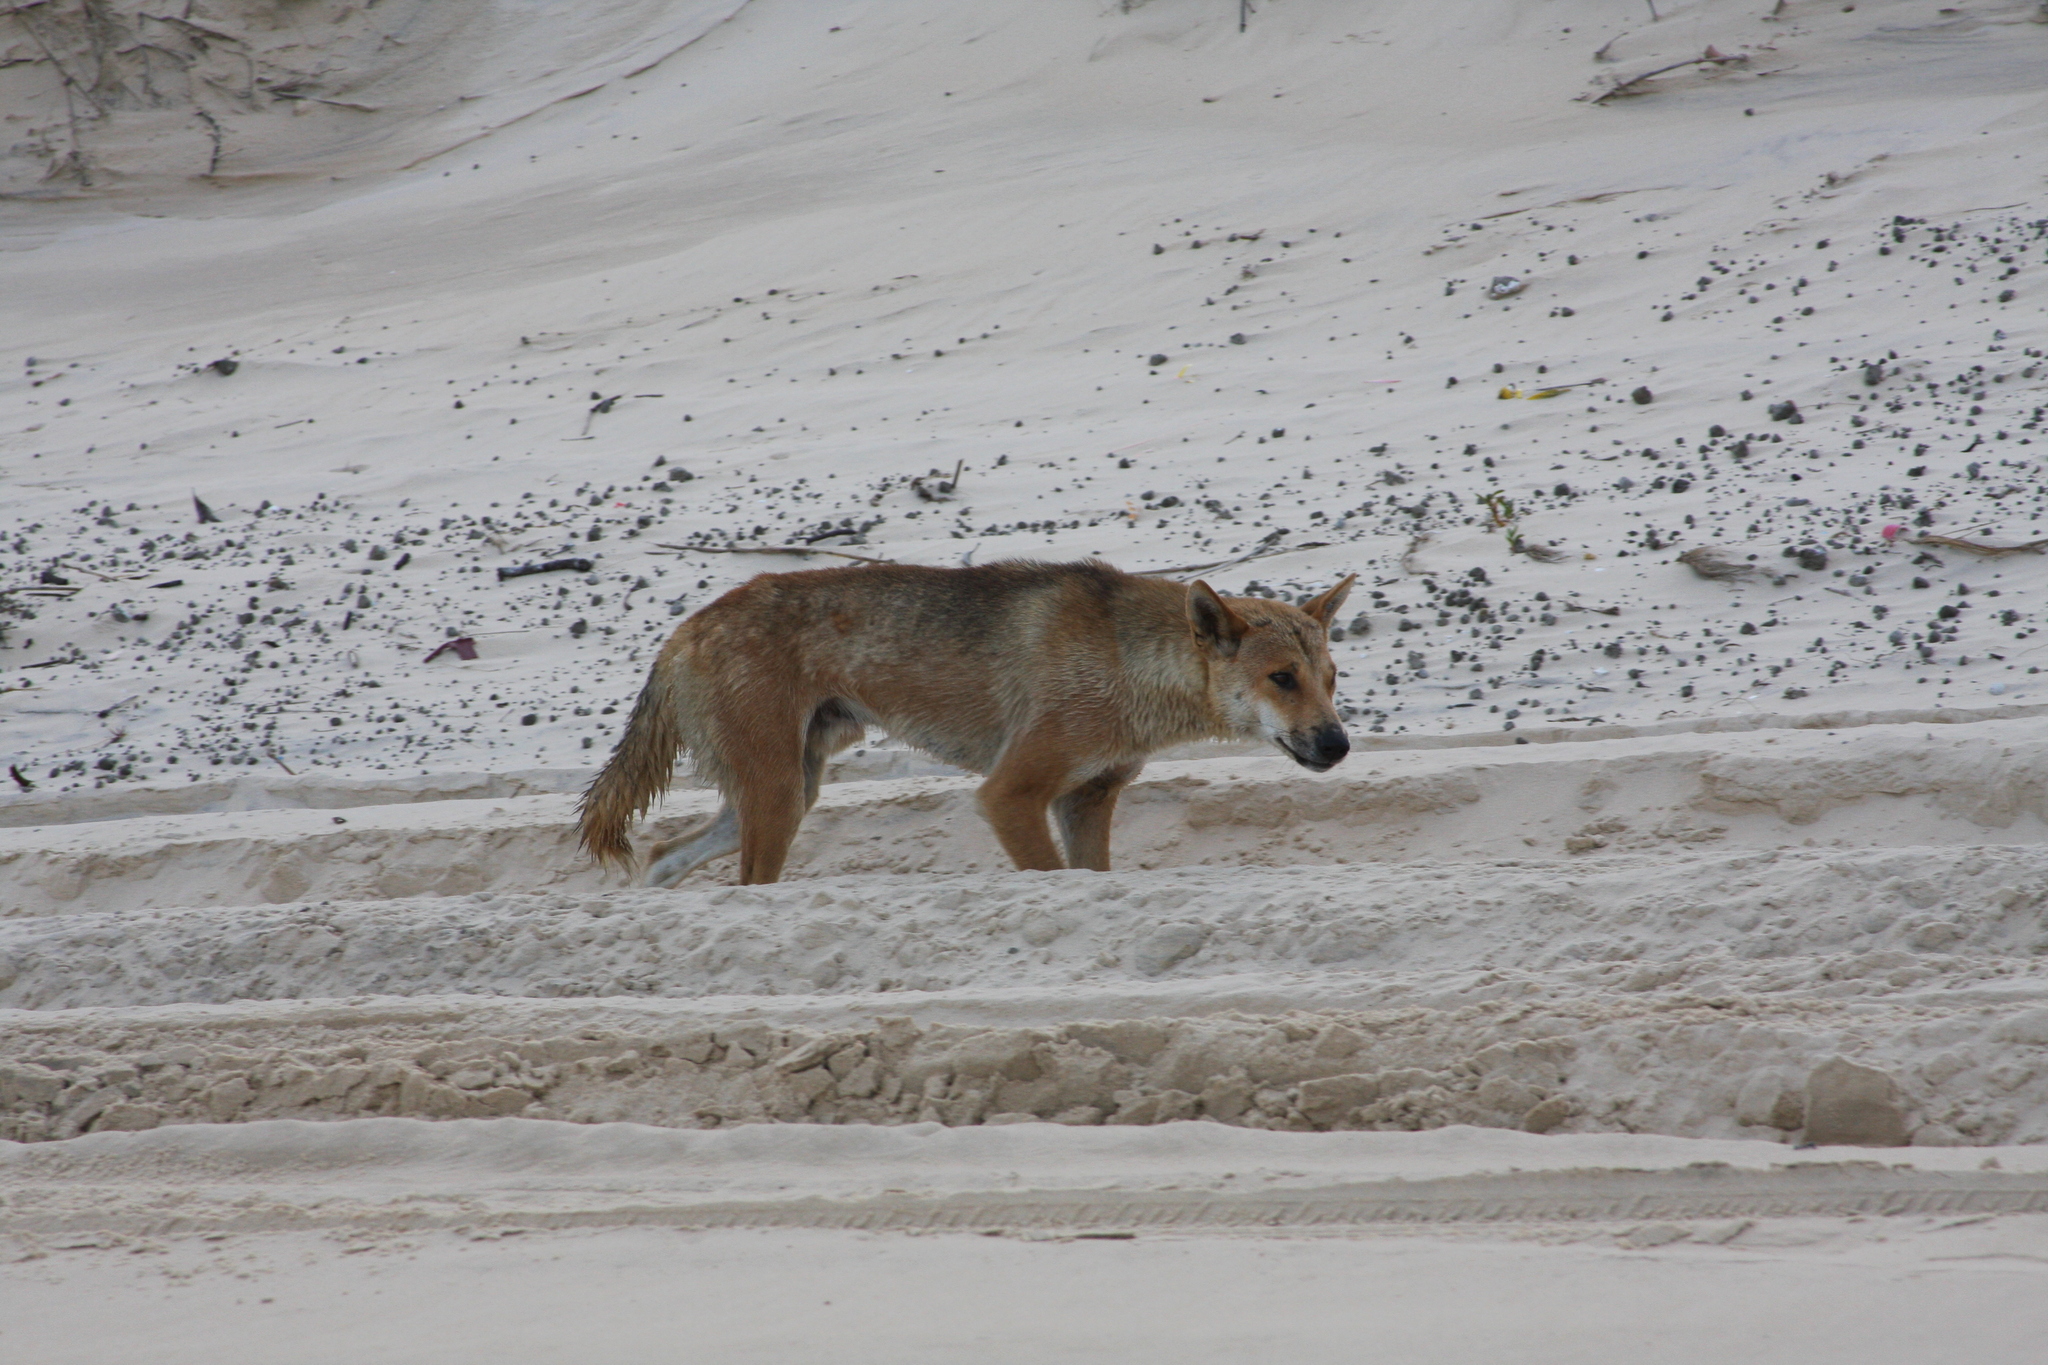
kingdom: Animalia
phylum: Chordata
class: Mammalia
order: Carnivora
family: Canidae
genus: Canis
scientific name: Canis lupus
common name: Gray wolf
